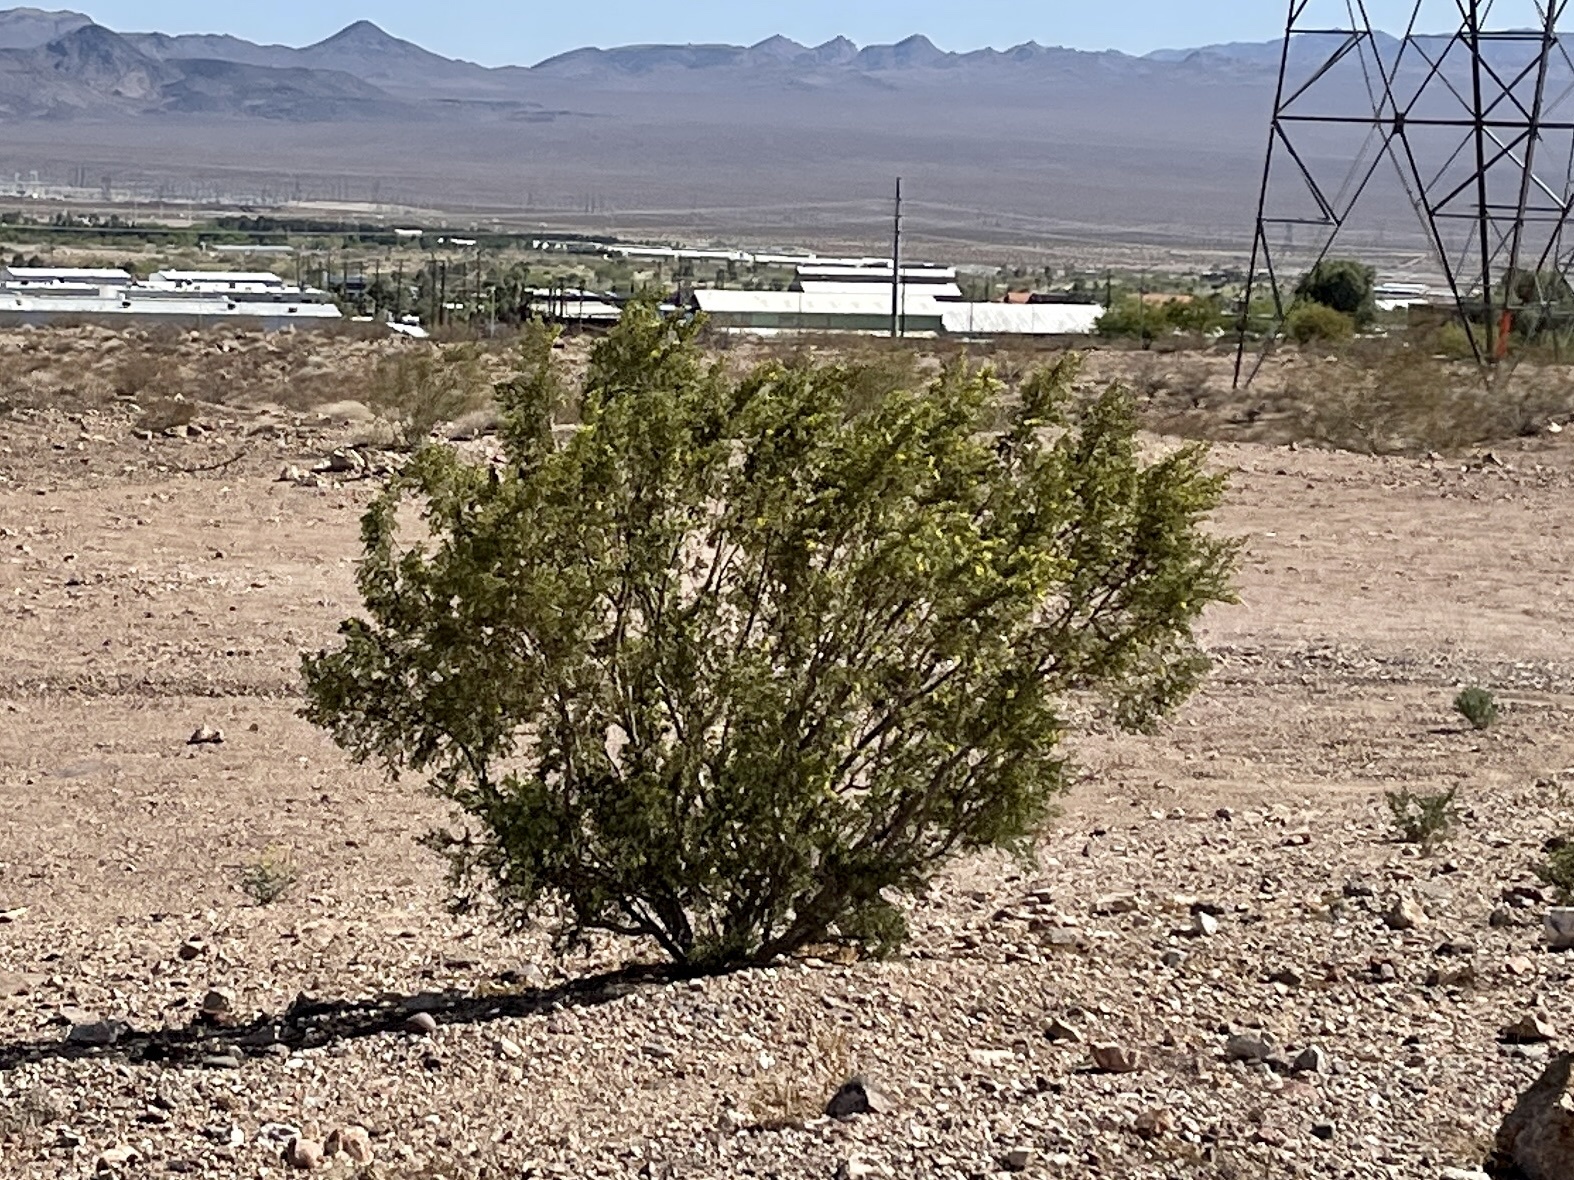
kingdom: Plantae
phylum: Tracheophyta
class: Magnoliopsida
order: Zygophyllales
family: Zygophyllaceae
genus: Larrea
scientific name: Larrea tridentata
